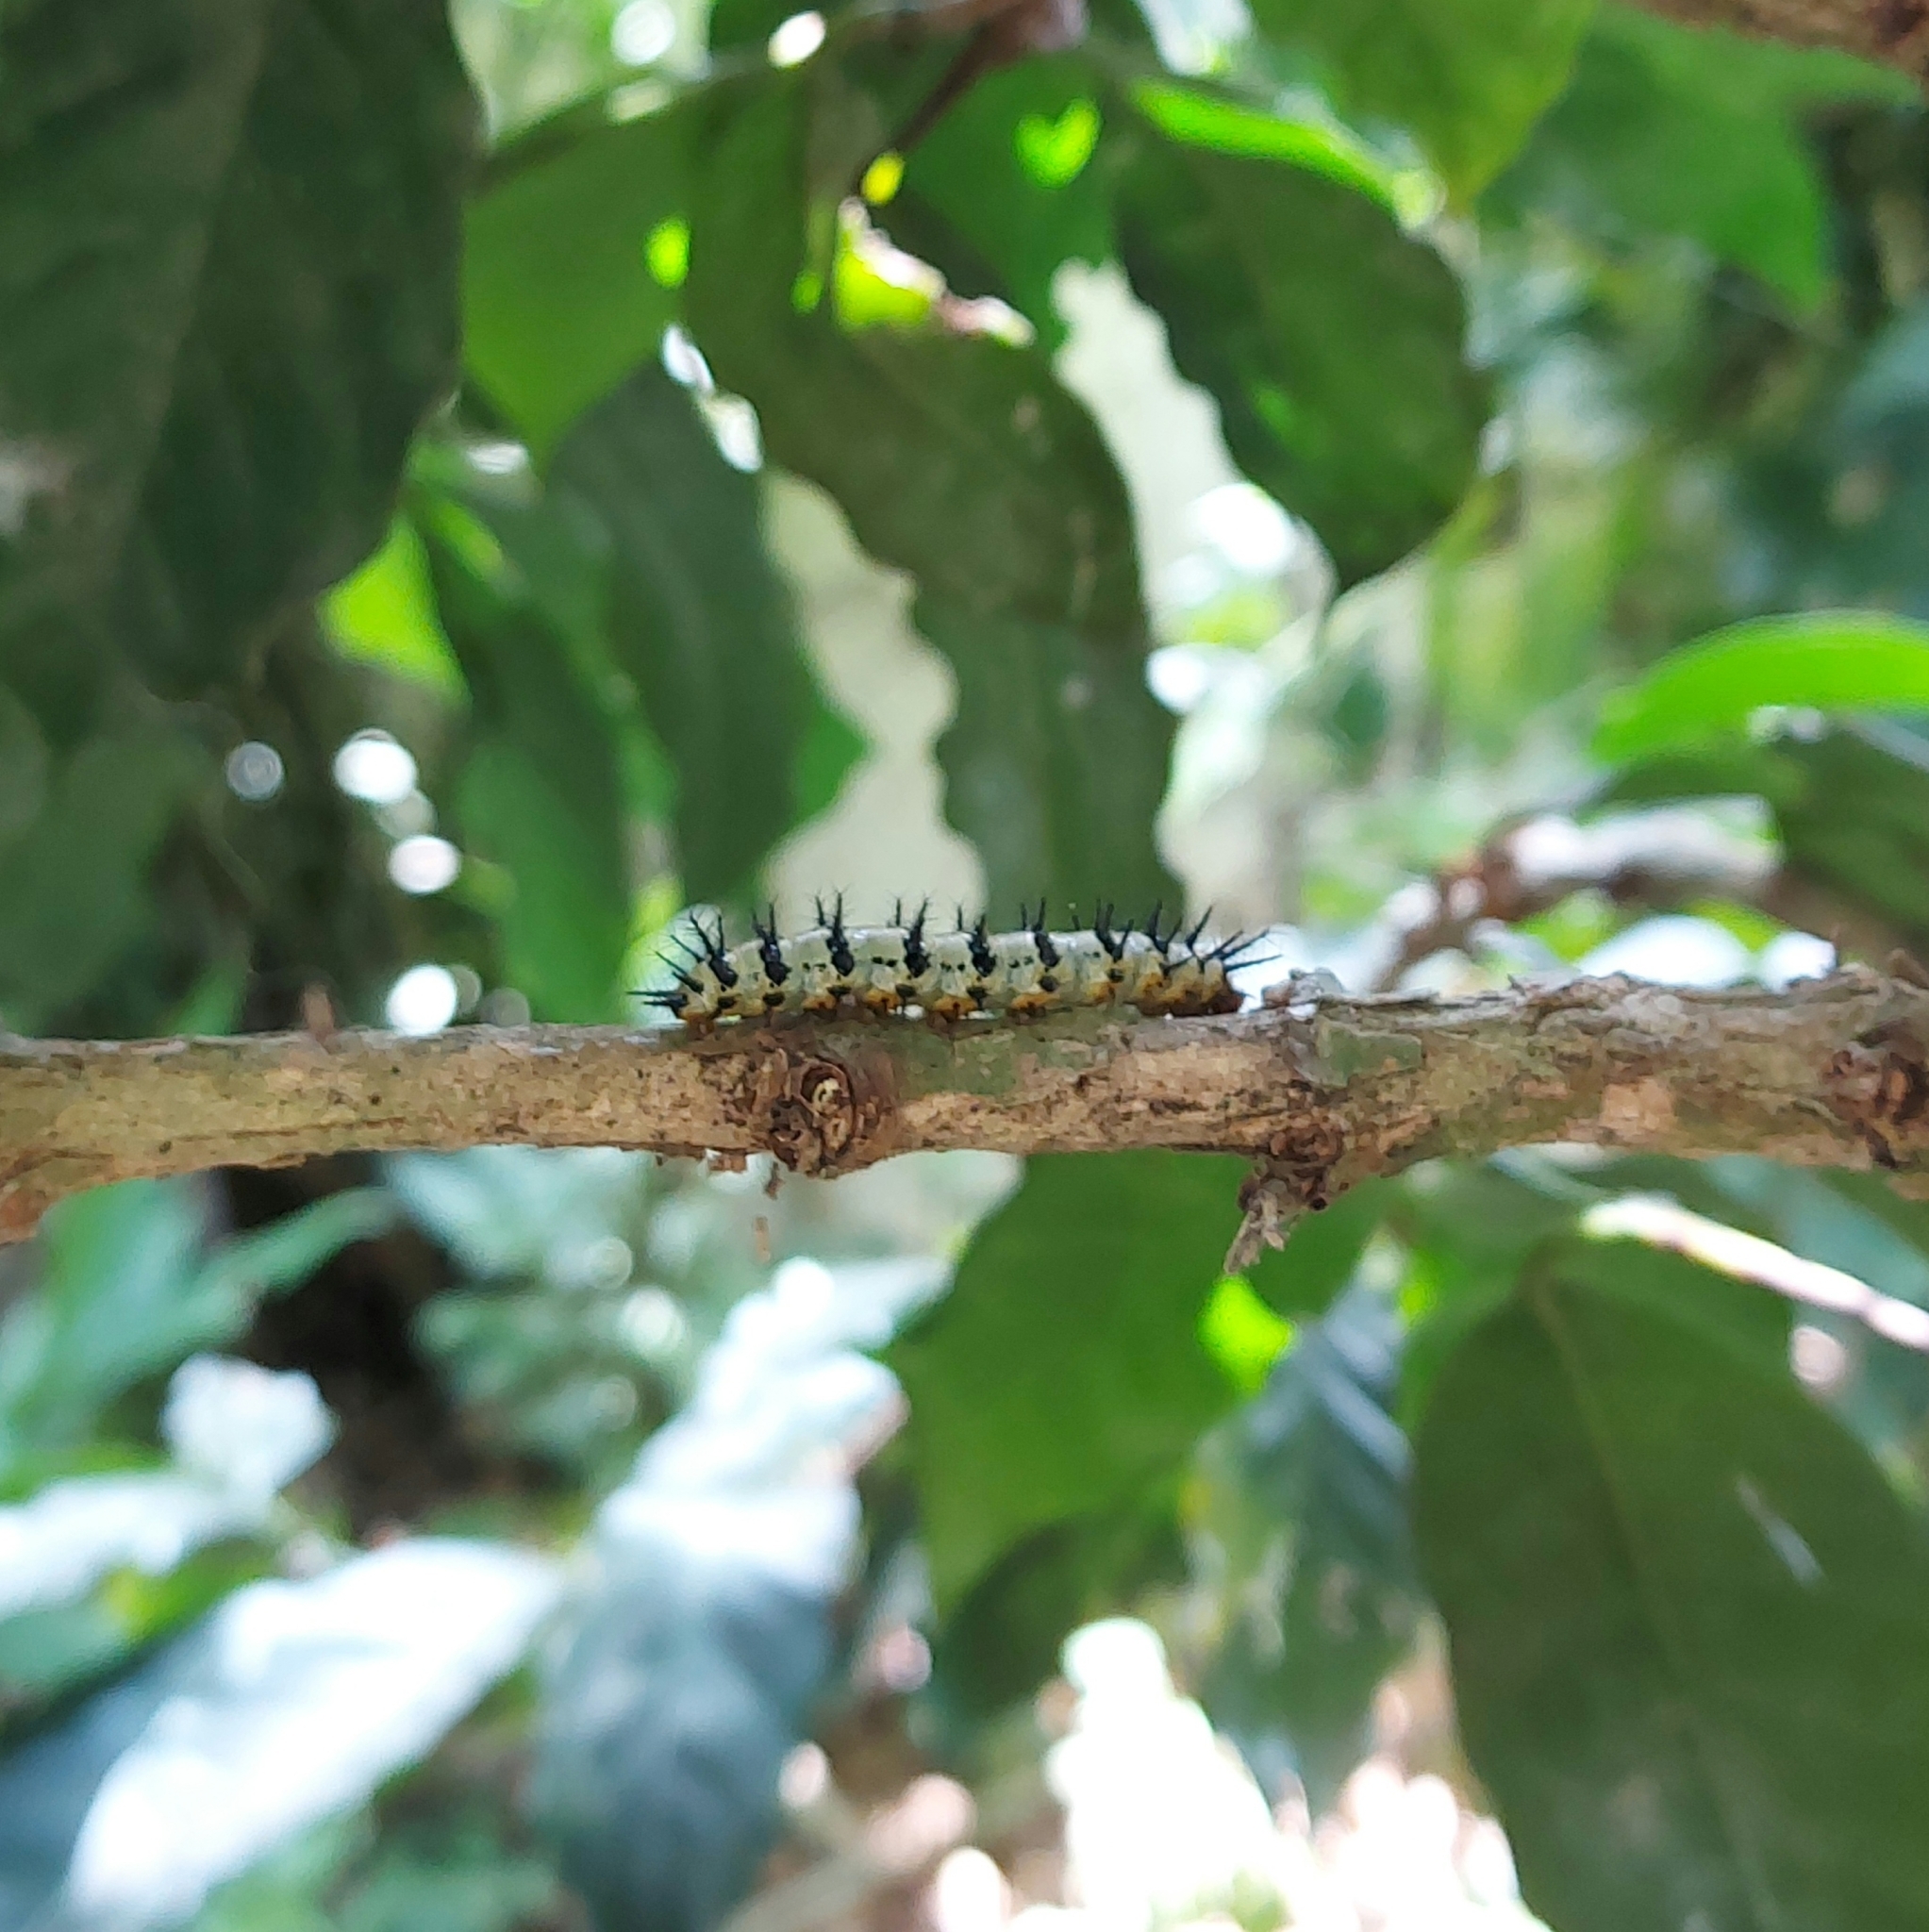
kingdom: Animalia
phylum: Arthropoda
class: Insecta
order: Lepidoptera
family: Nymphalidae
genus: Chlosyne
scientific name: Chlosyne janais
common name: Crimson patch
